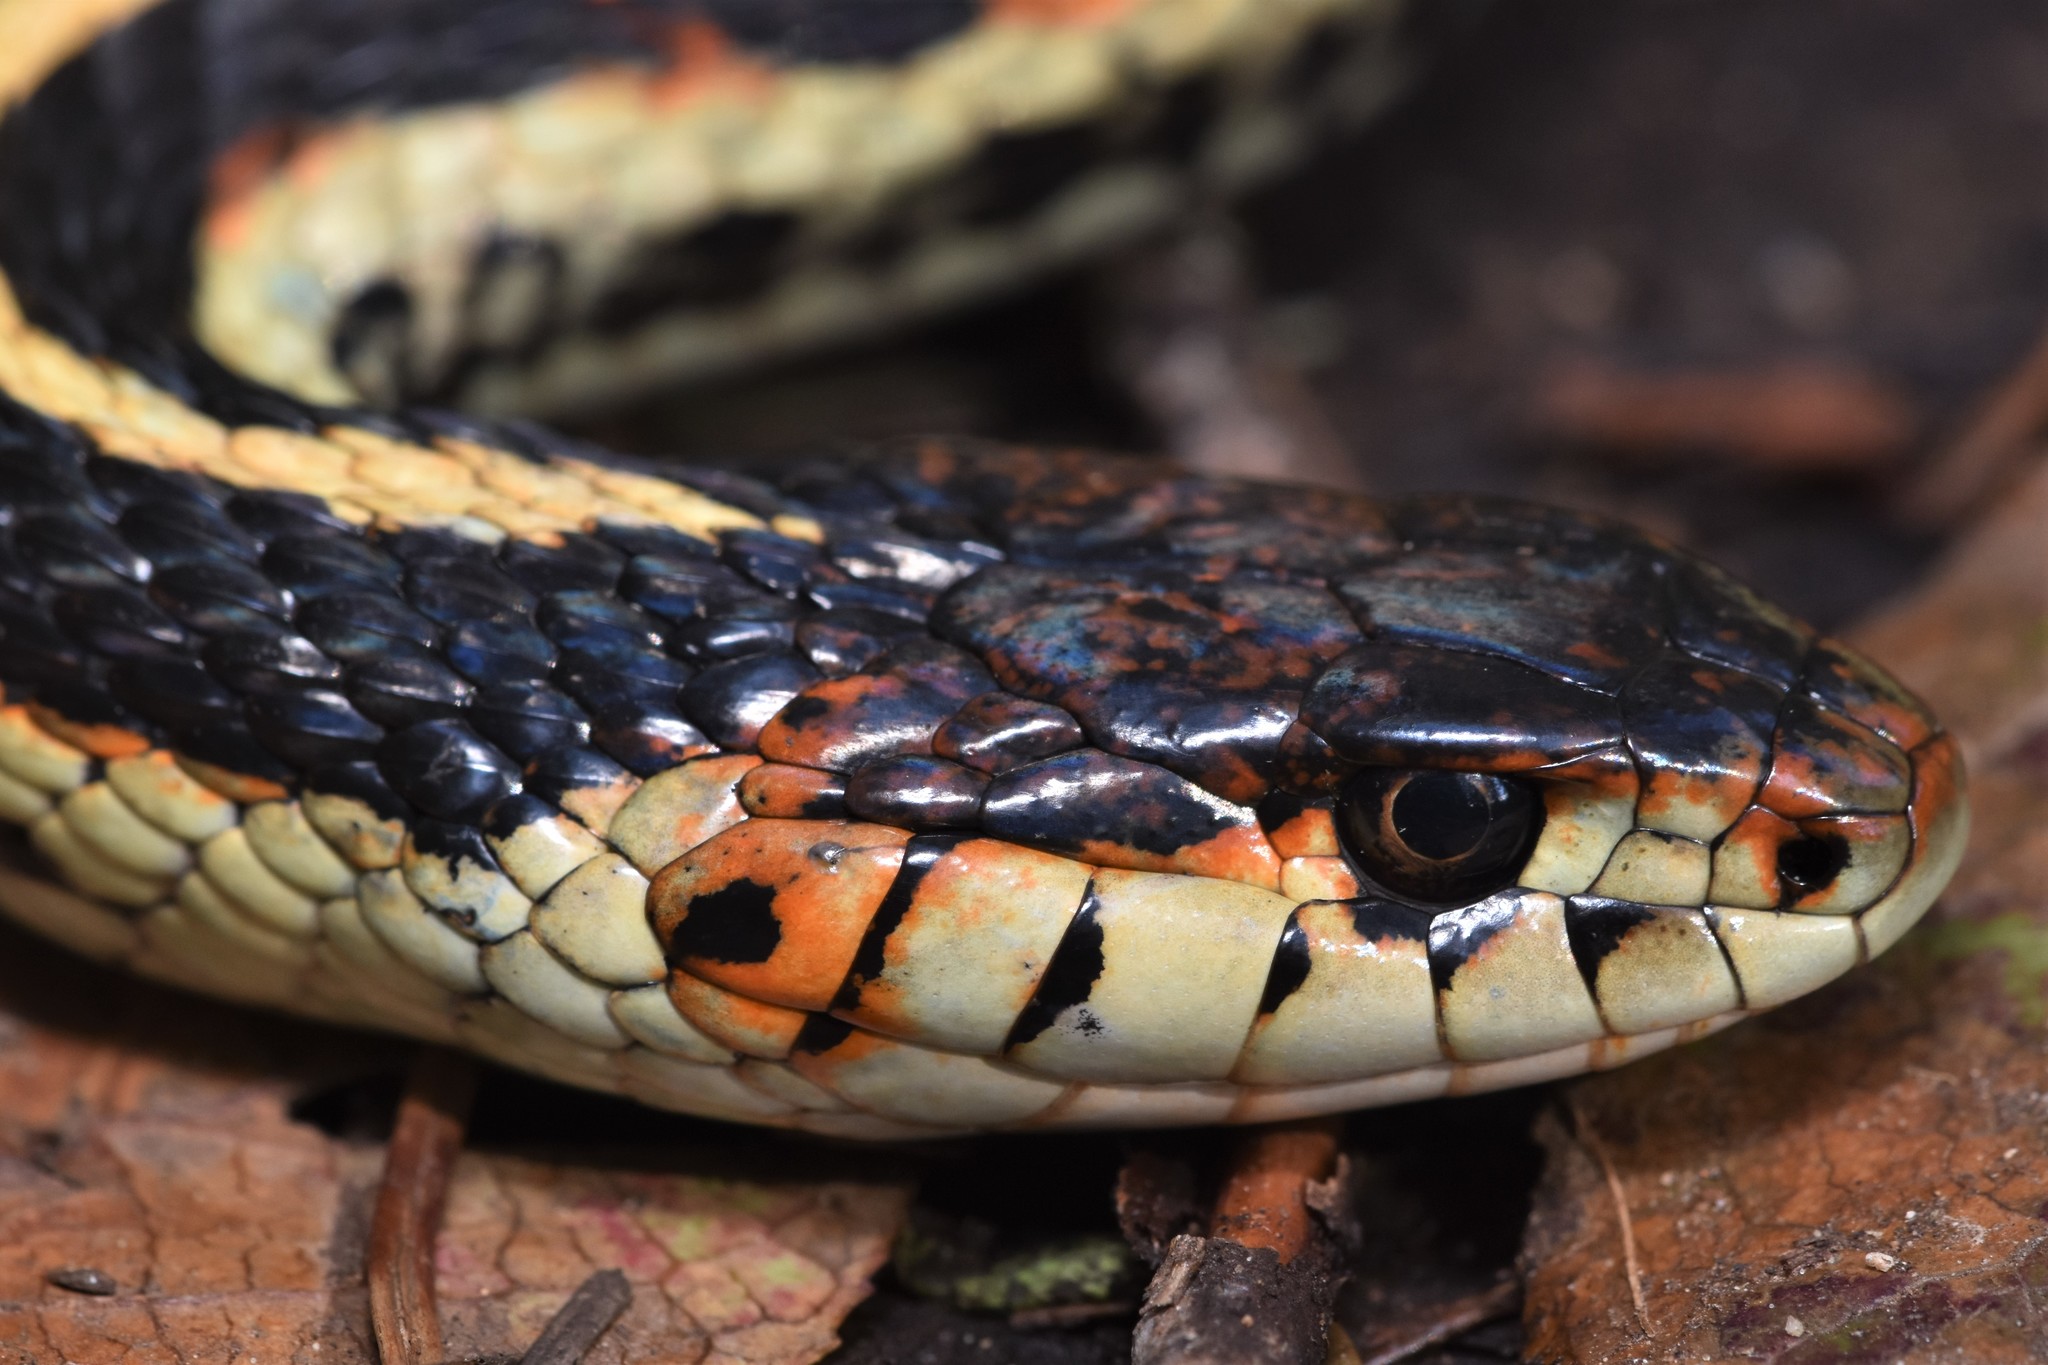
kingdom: Animalia
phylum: Chordata
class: Squamata
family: Colubridae
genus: Thamnophis
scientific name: Thamnophis sirtalis
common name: Common garter snake
